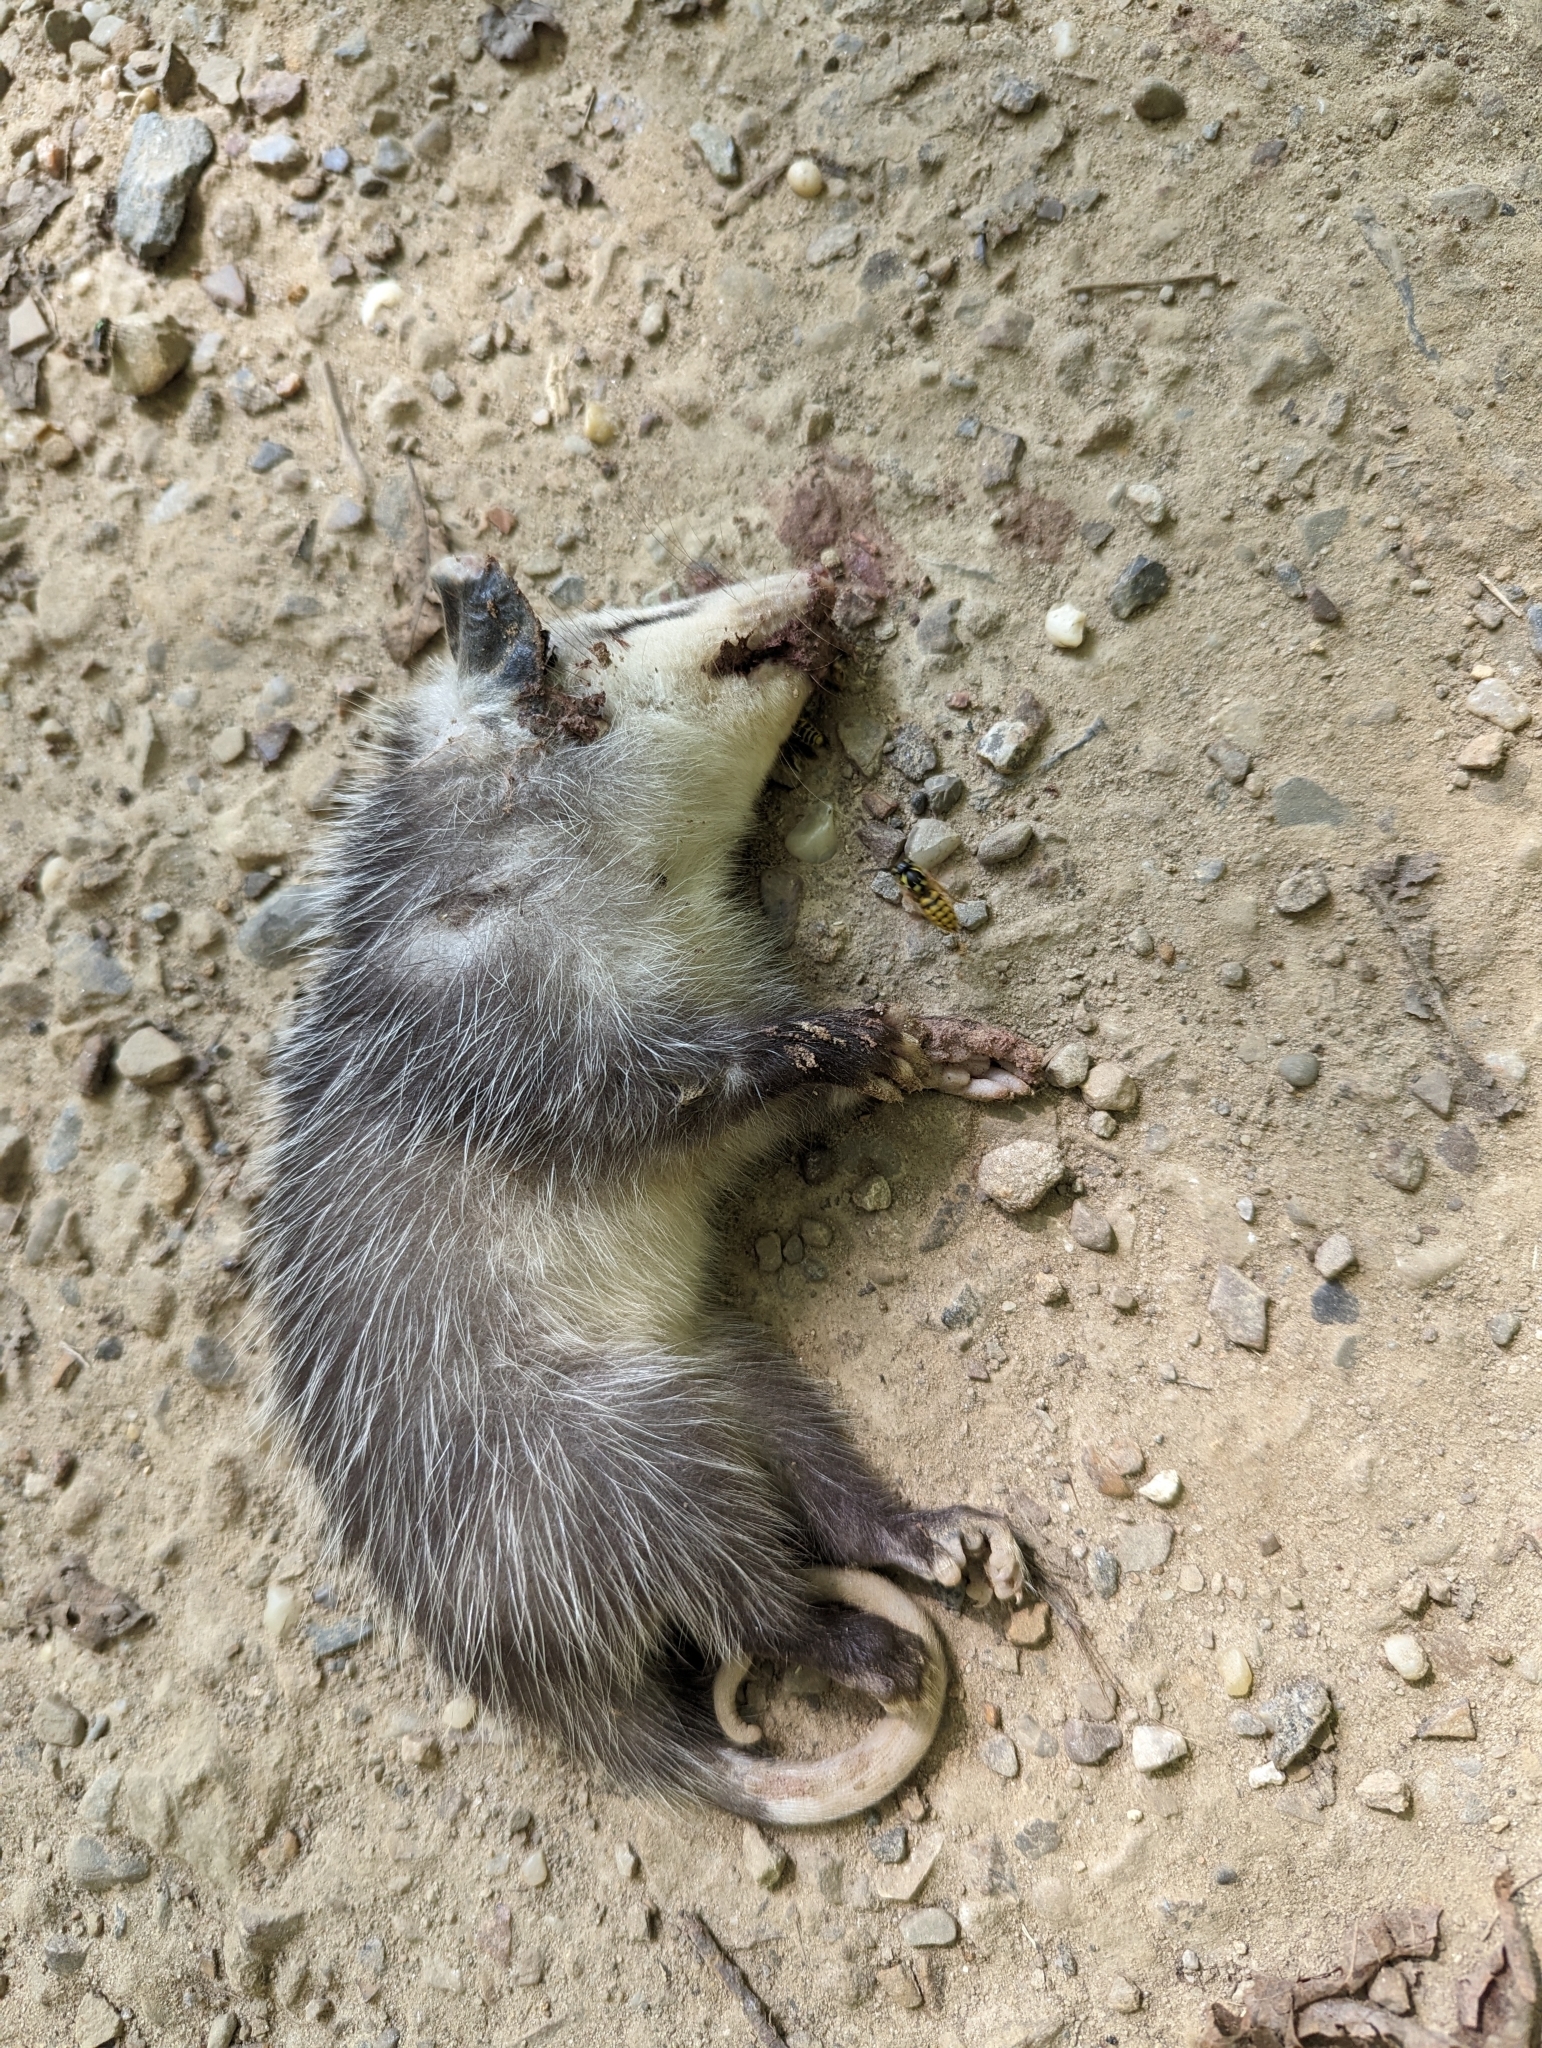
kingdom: Animalia
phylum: Chordata
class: Mammalia
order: Didelphimorphia
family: Didelphidae
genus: Didelphis
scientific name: Didelphis virginiana
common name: Virginia opossum
